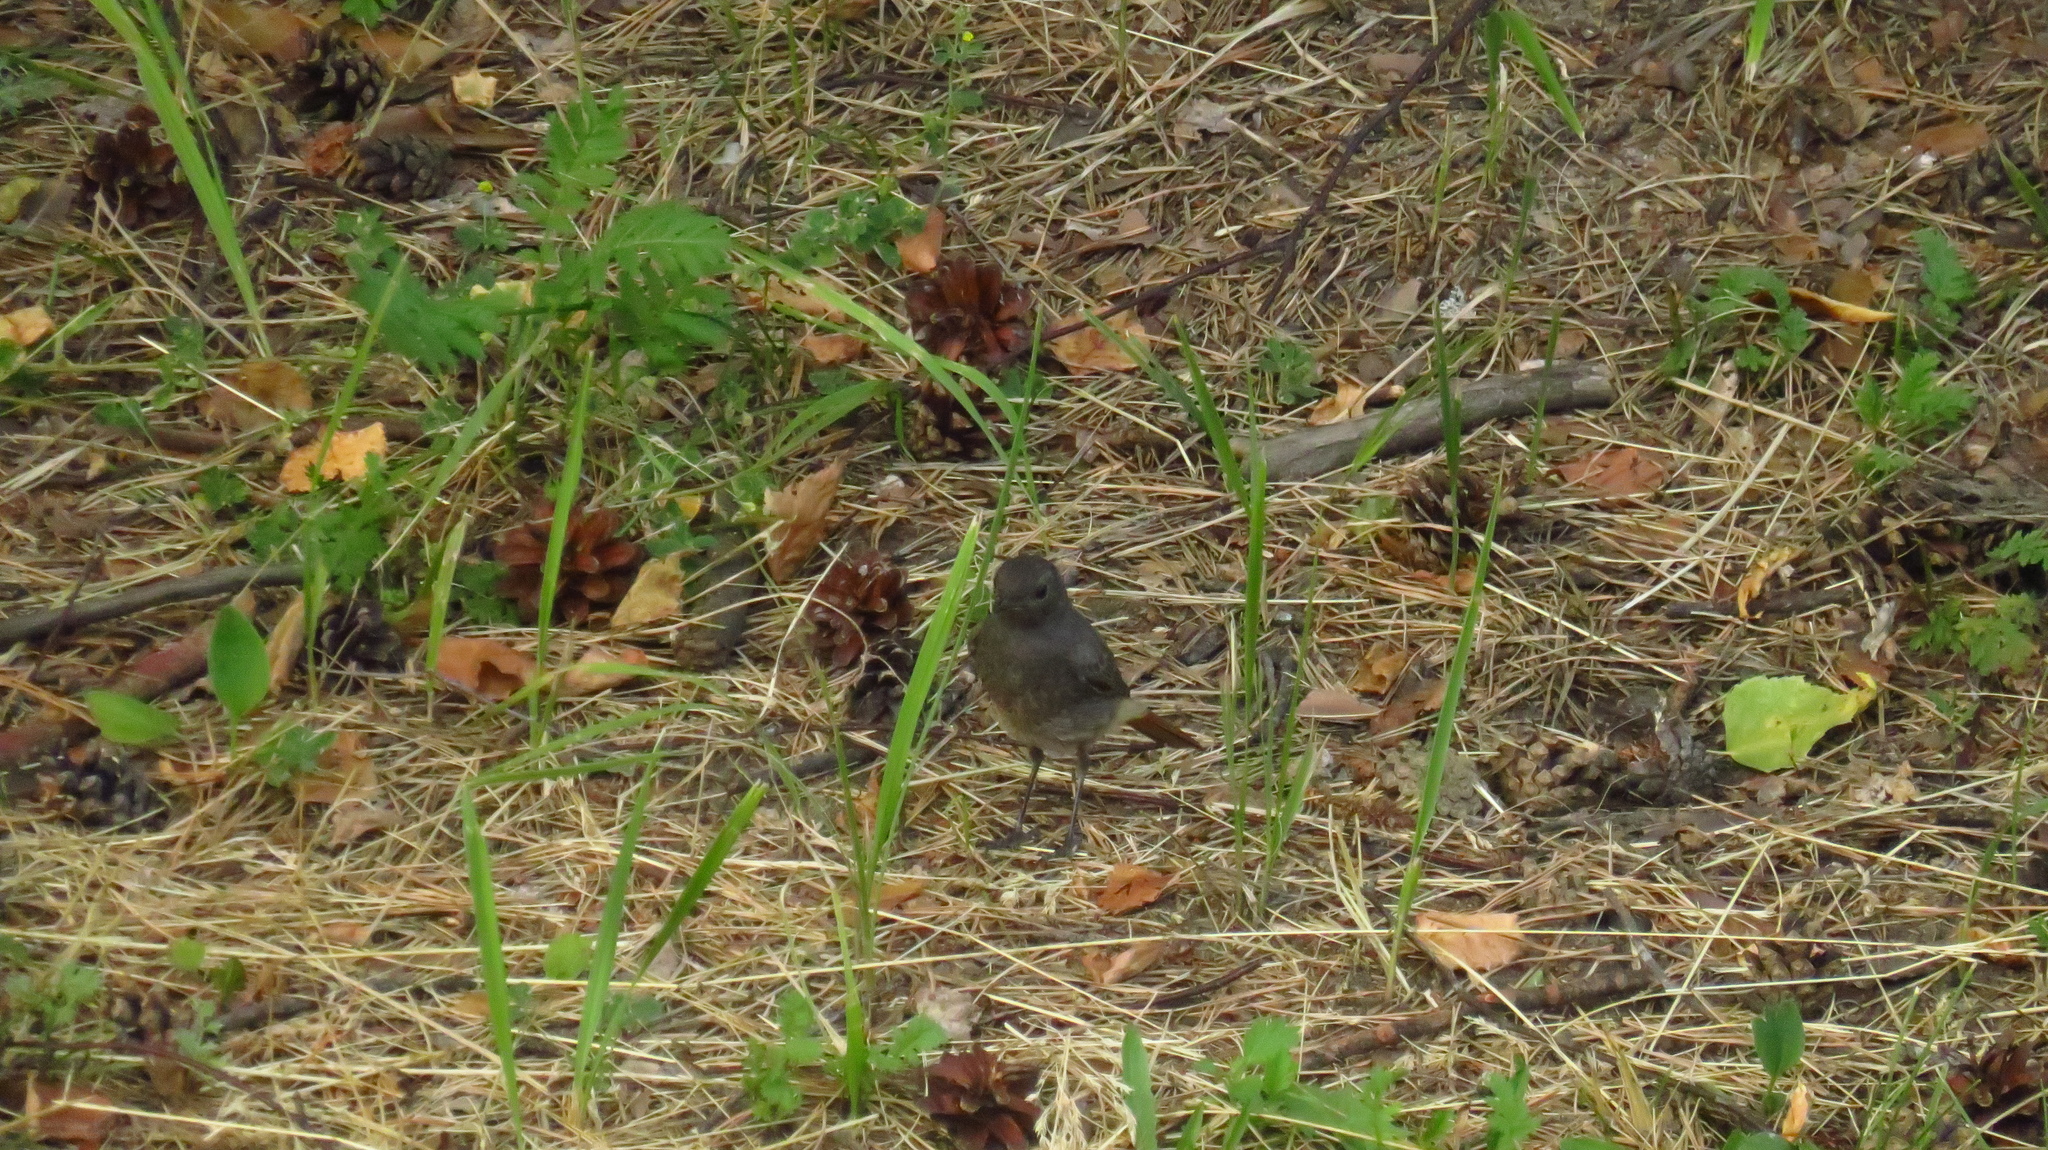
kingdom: Animalia
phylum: Chordata
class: Aves
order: Passeriformes
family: Muscicapidae
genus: Phoenicurus
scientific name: Phoenicurus ochruros
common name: Black redstart
